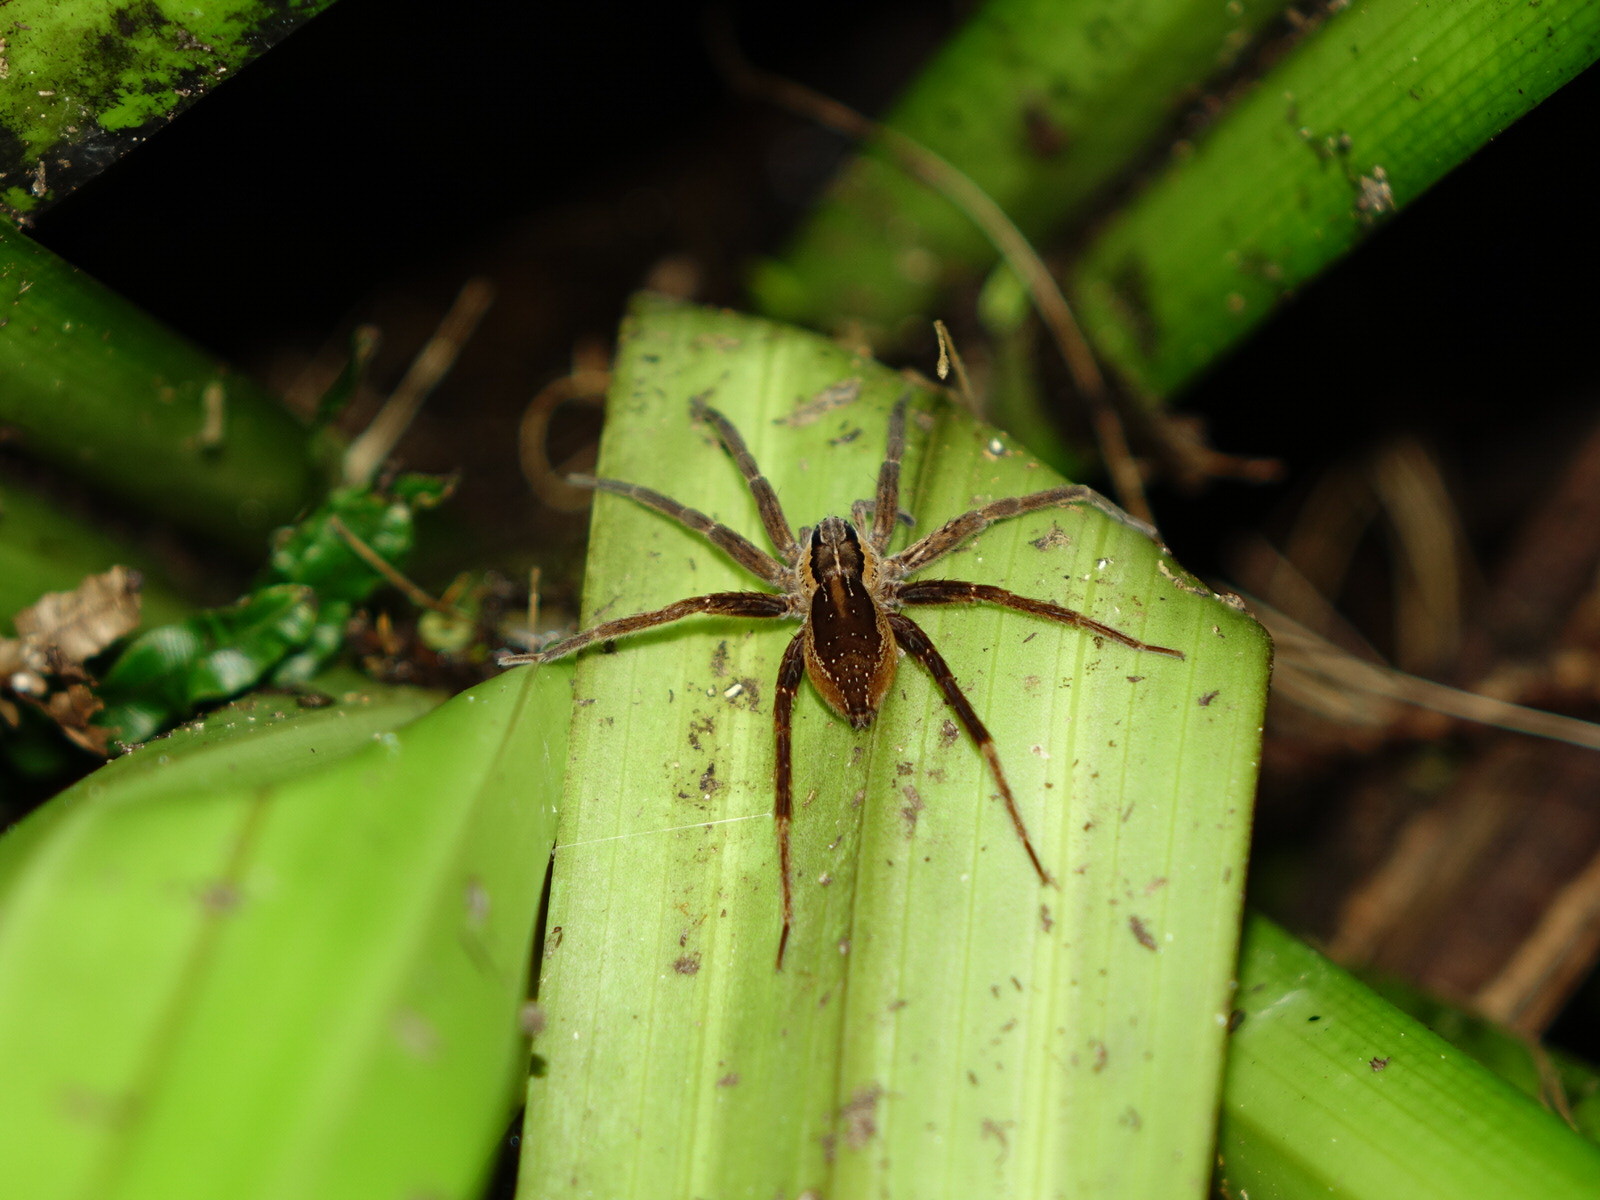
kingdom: Animalia
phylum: Arthropoda
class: Arachnida
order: Araneae
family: Pisauridae
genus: Dolomedes
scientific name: Dolomedes minor
